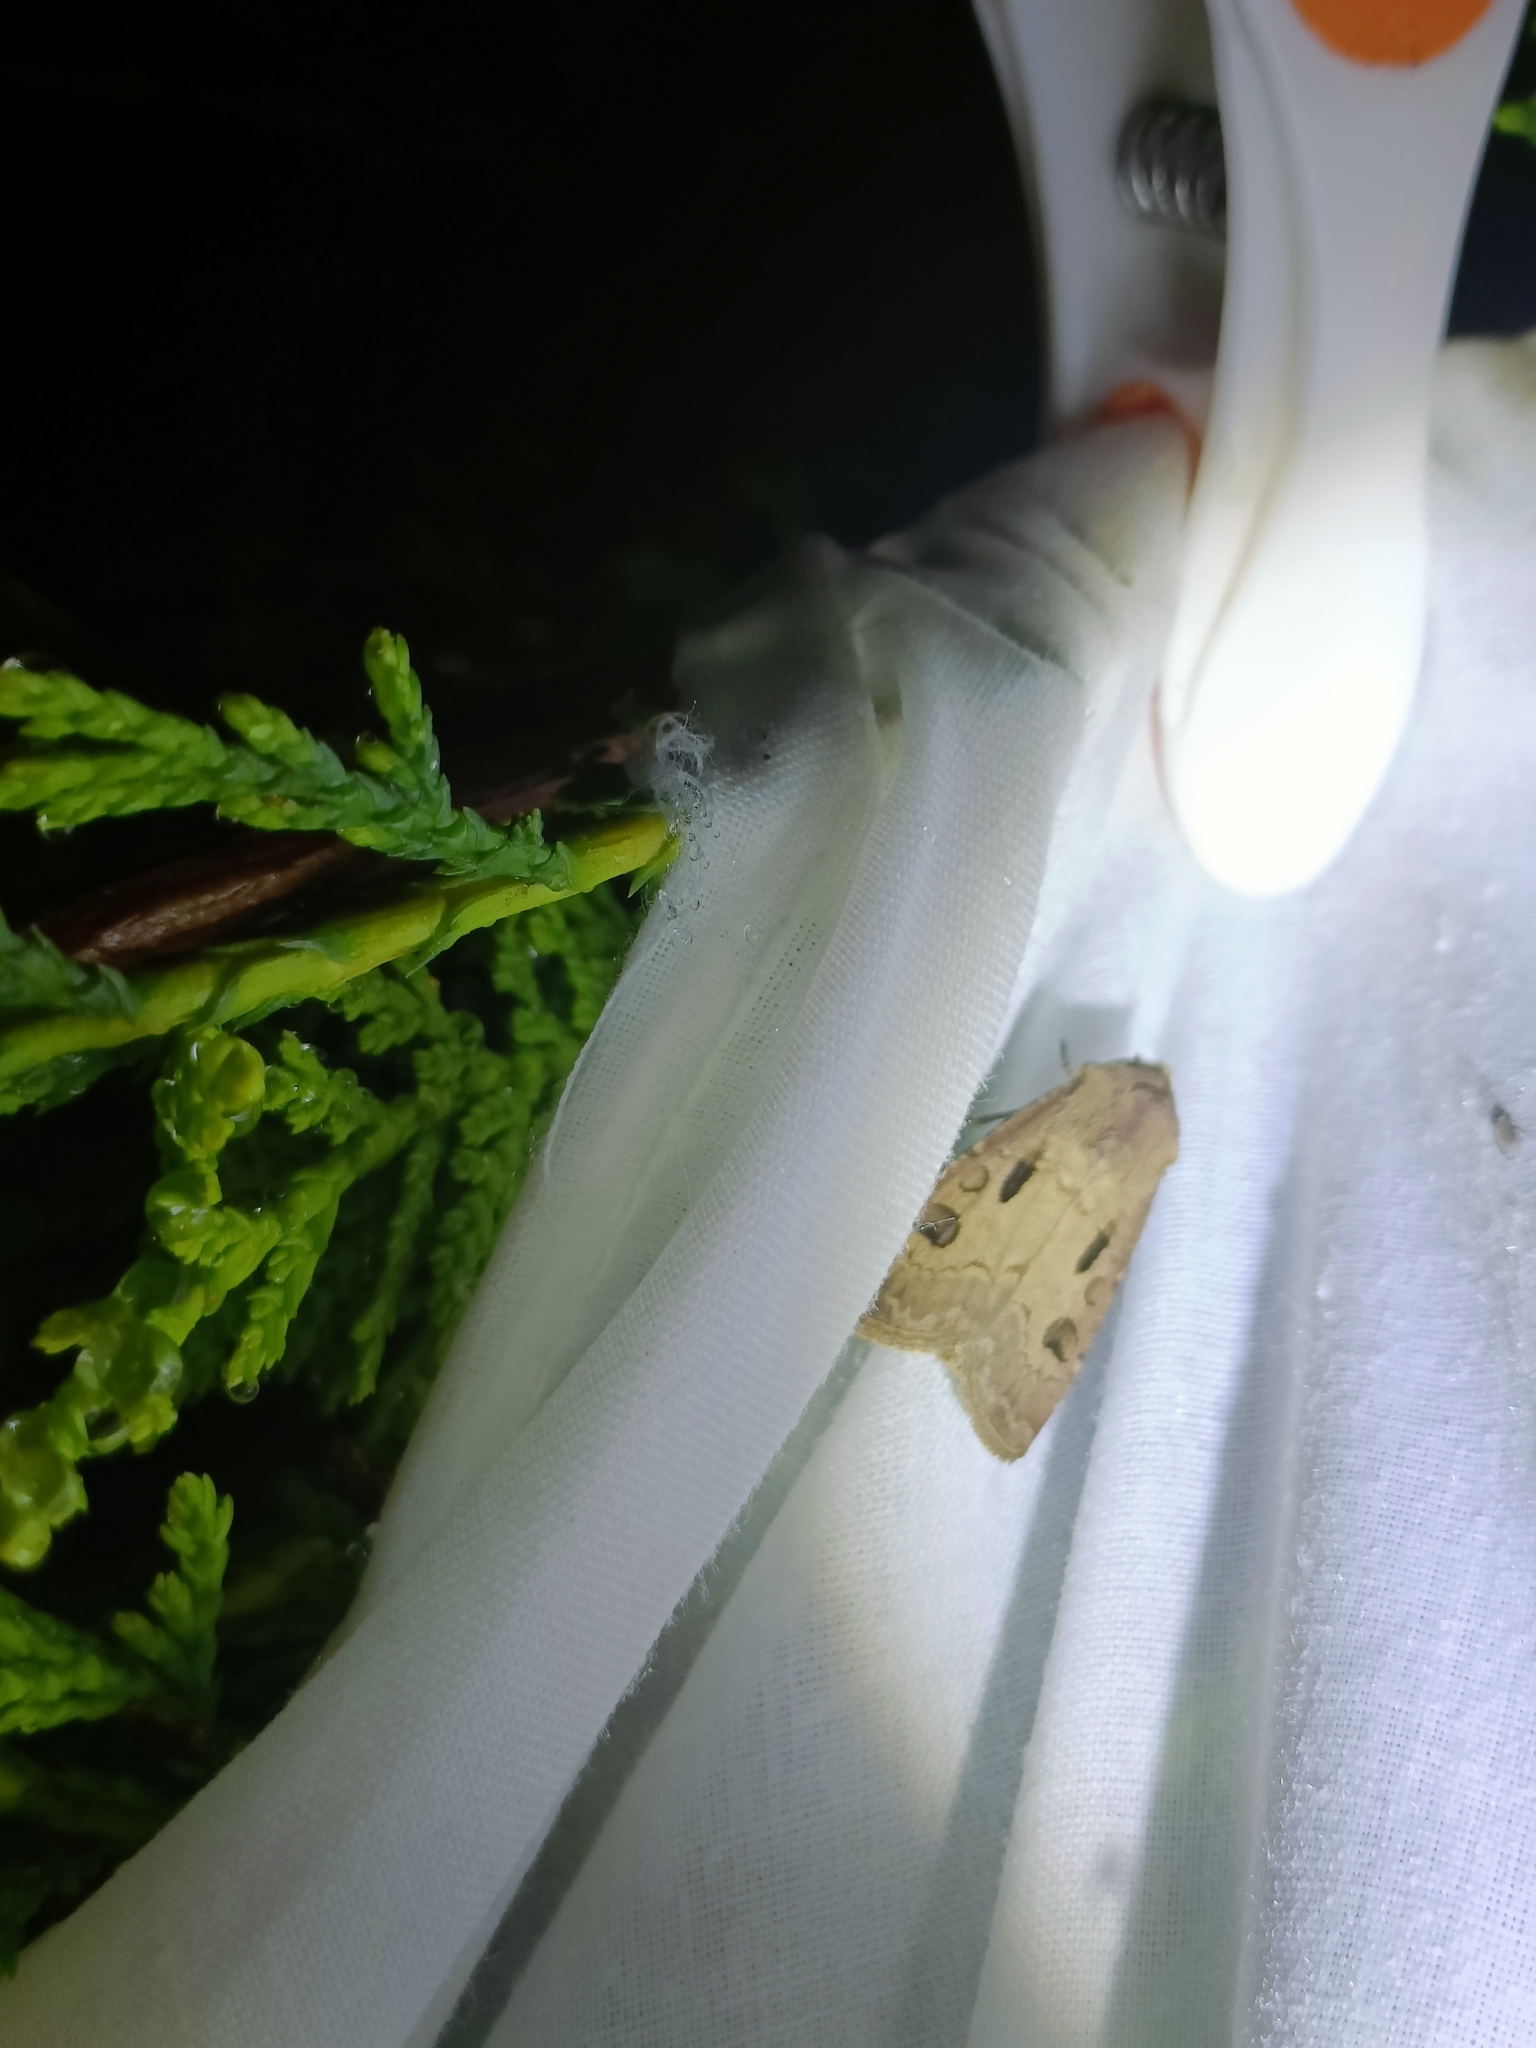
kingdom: Animalia
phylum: Arthropoda
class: Insecta
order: Lepidoptera
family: Noctuidae
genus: Agrotis
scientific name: Agrotis exclamationis
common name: Heart and dart
